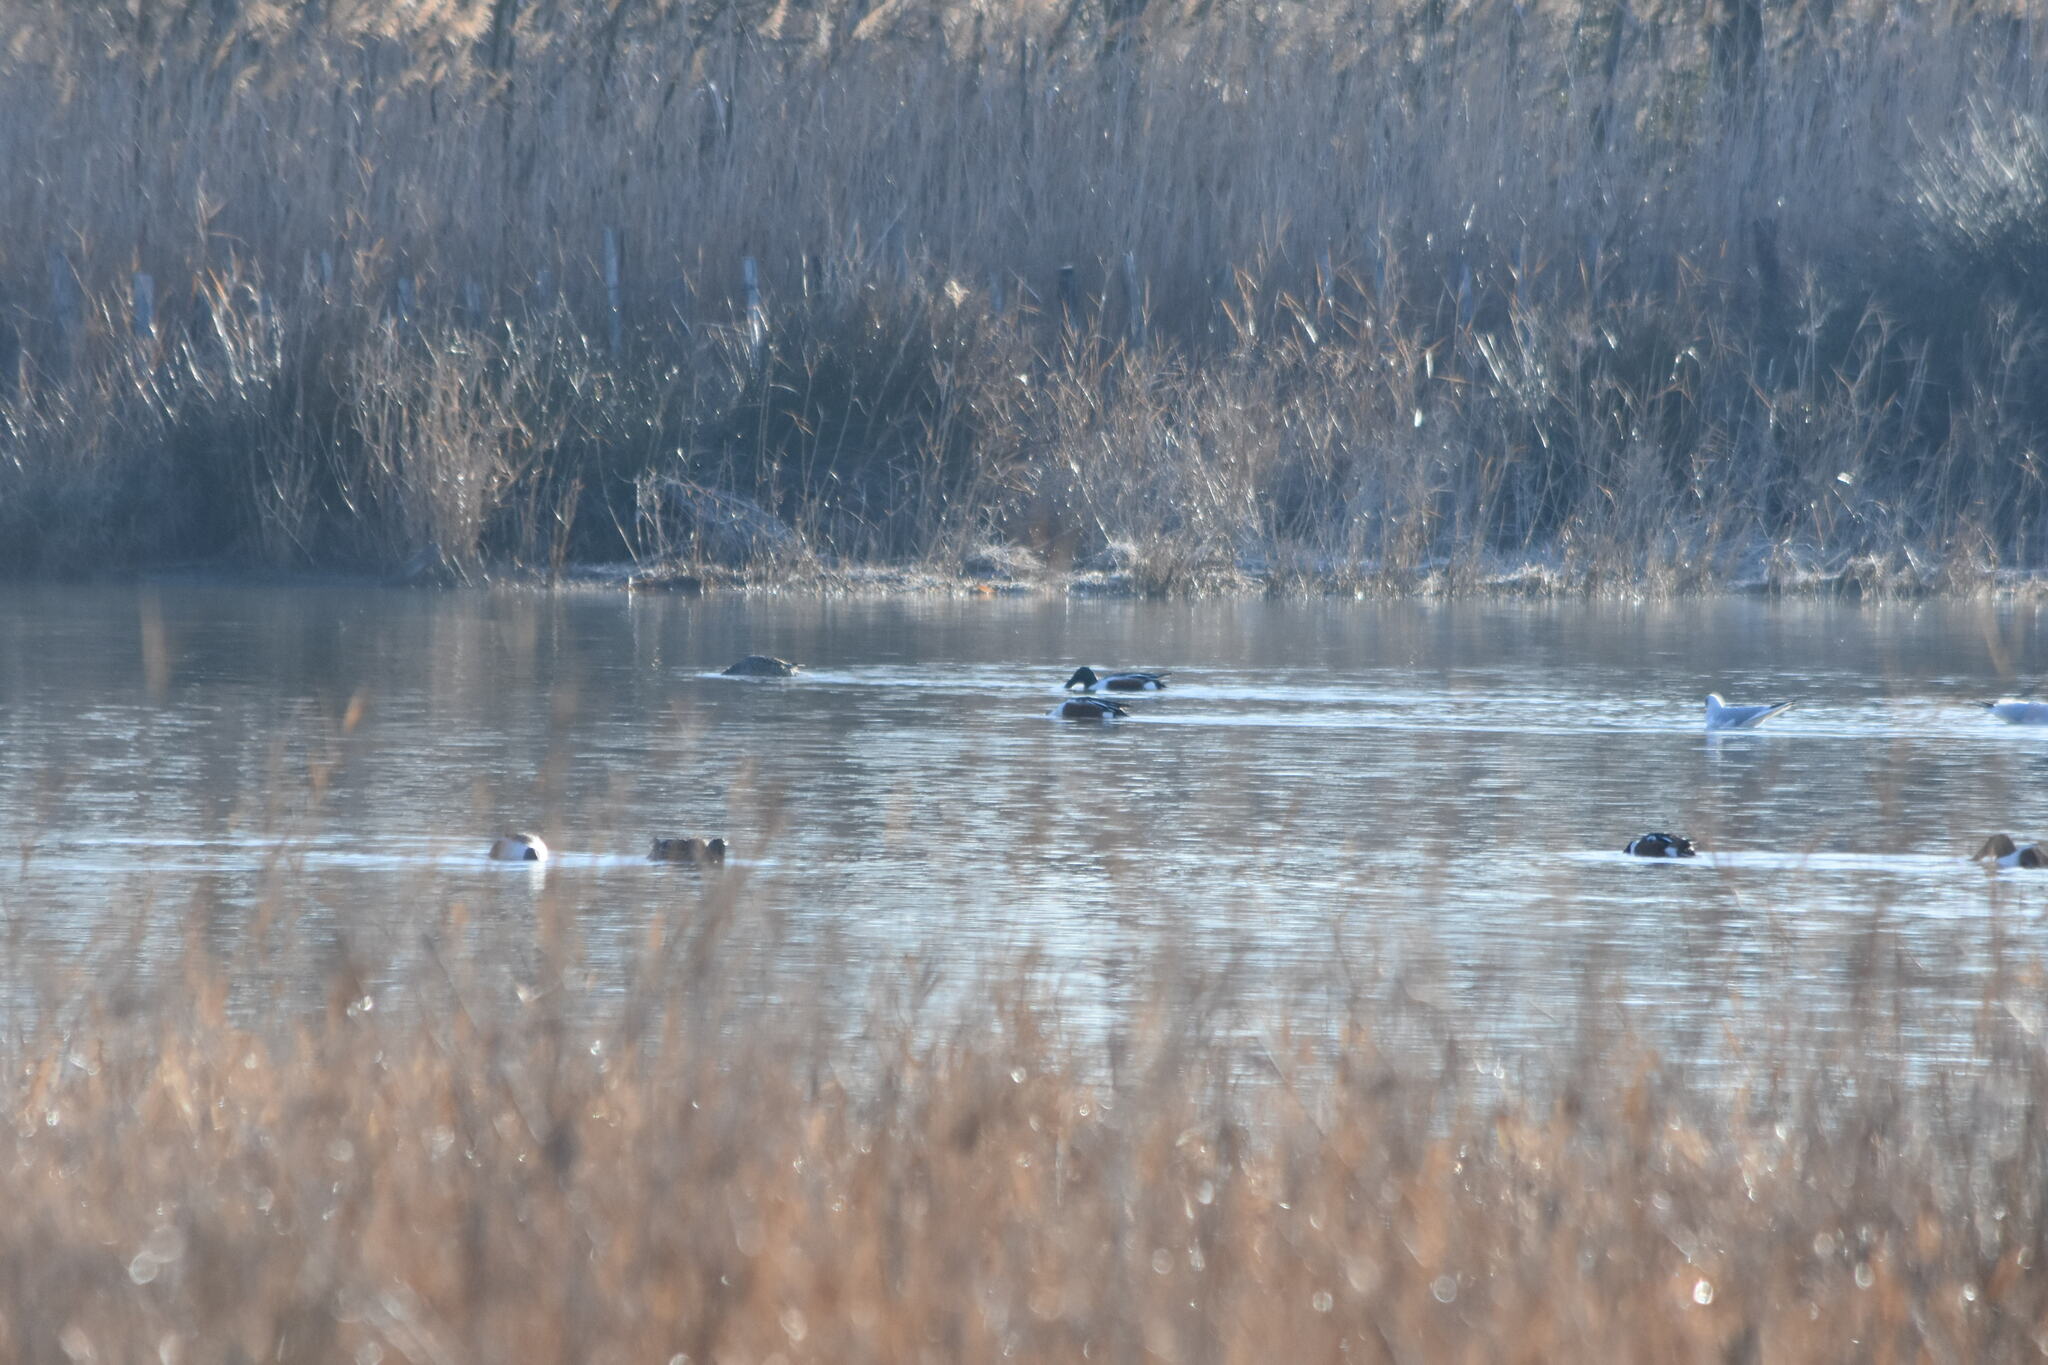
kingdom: Animalia
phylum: Chordata
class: Aves
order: Anseriformes
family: Anatidae
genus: Spatula
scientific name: Spatula clypeata
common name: Northern shoveler
